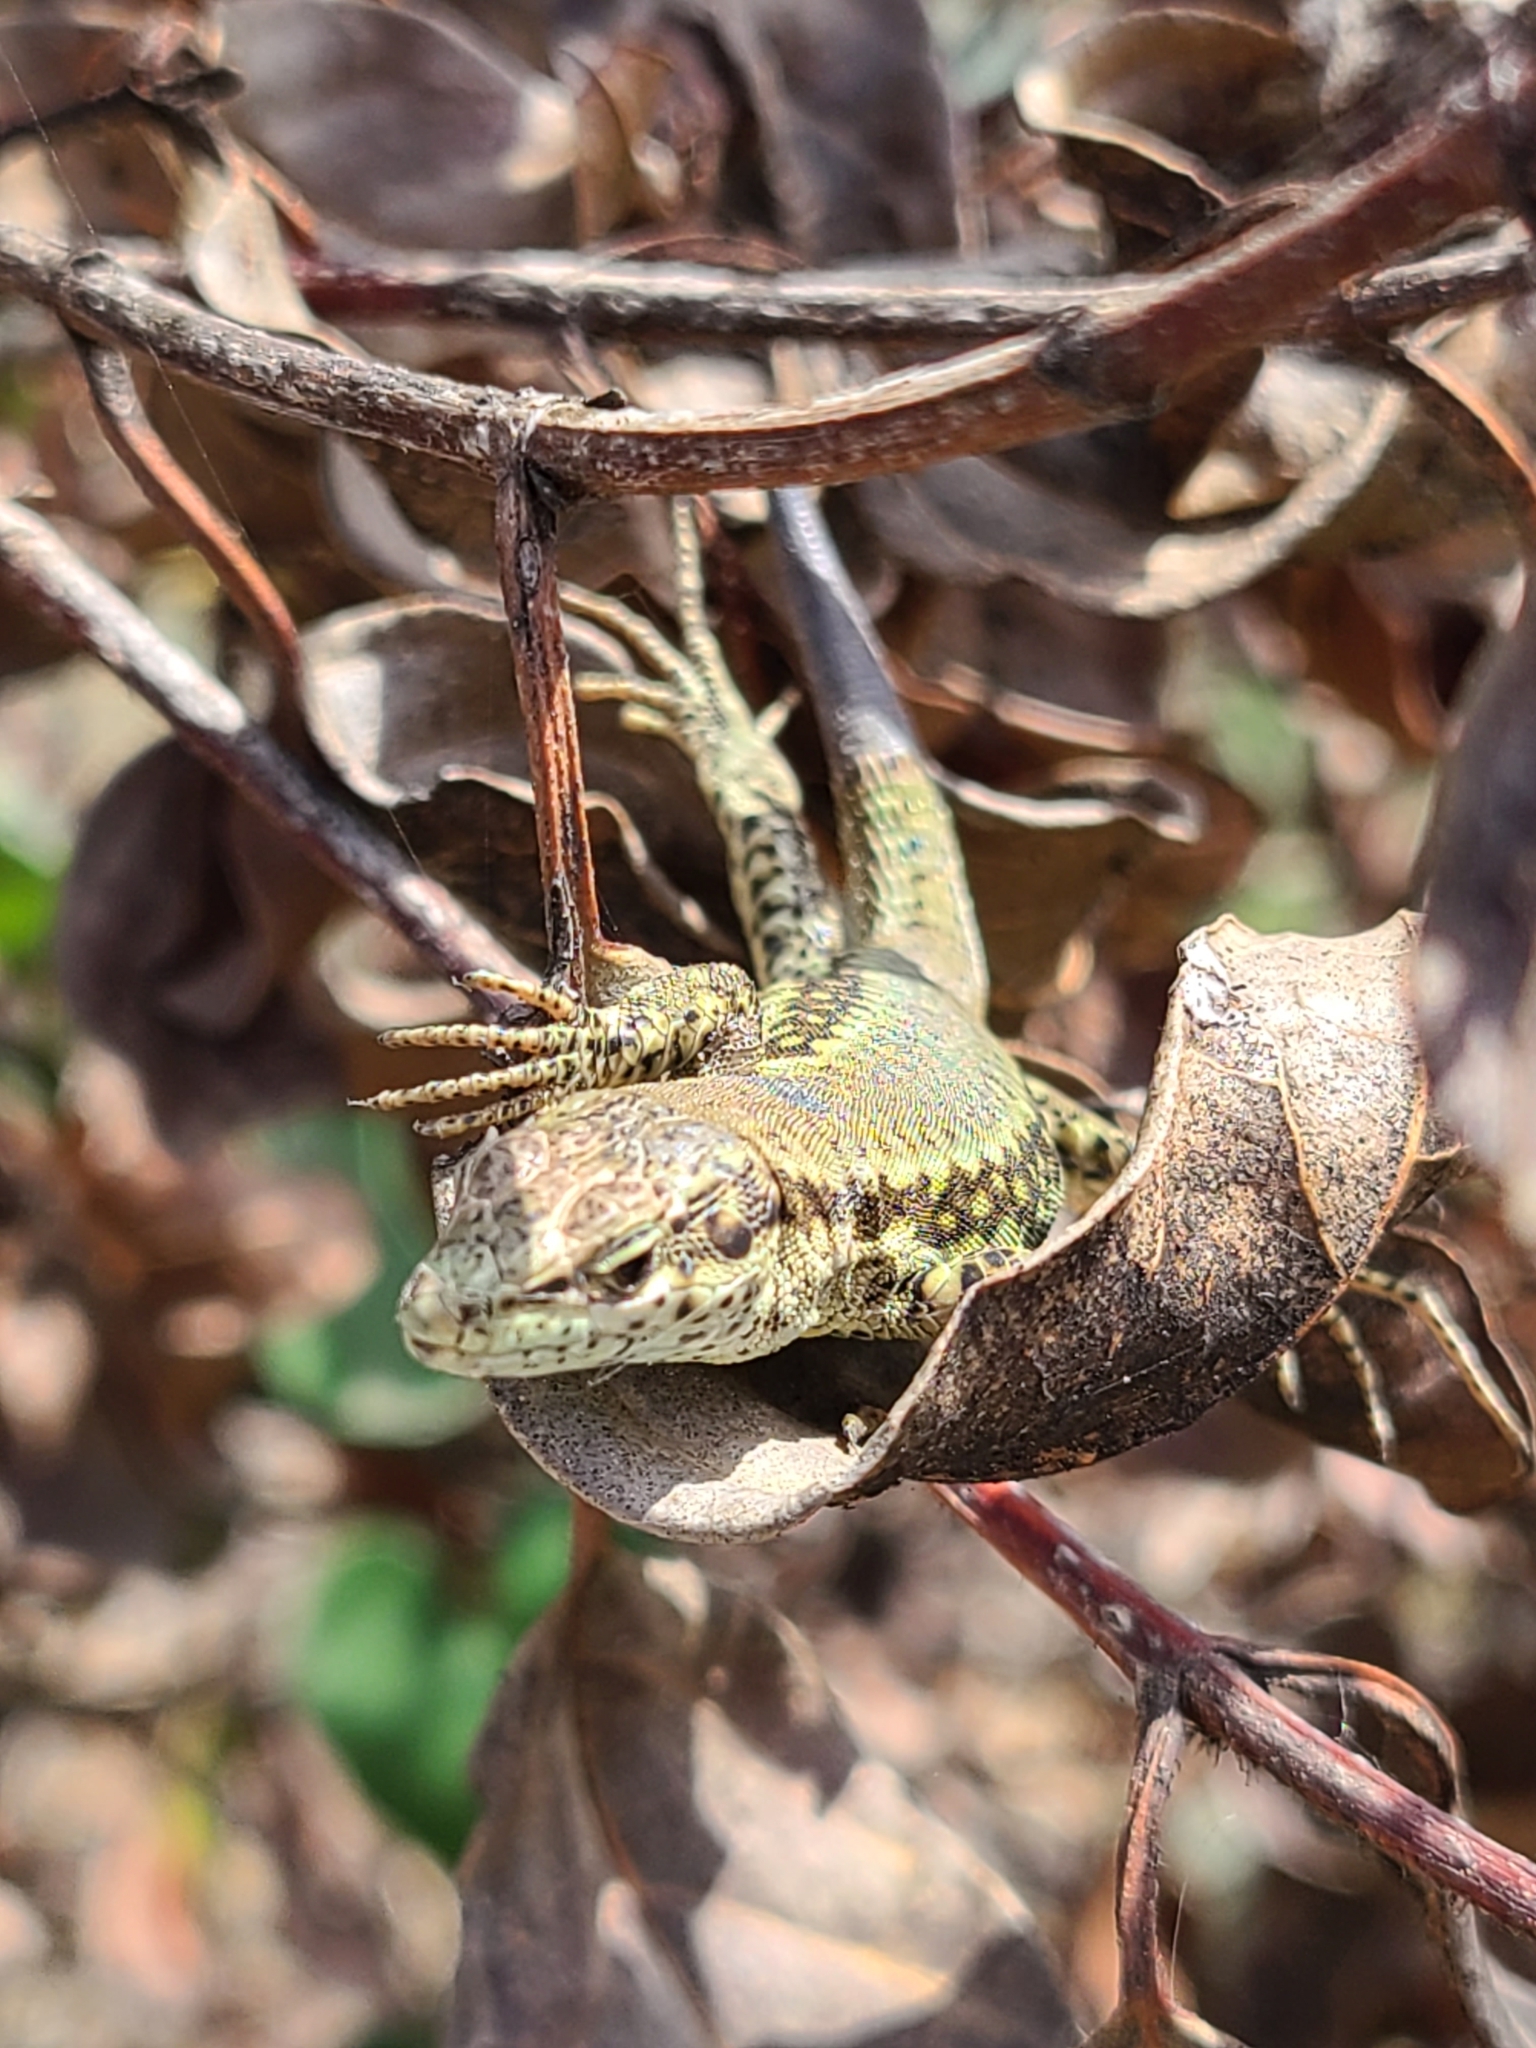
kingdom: Animalia
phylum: Chordata
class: Squamata
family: Lacertidae
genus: Podarcis
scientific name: Podarcis vaucheri
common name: Vaucher's wall lizard
